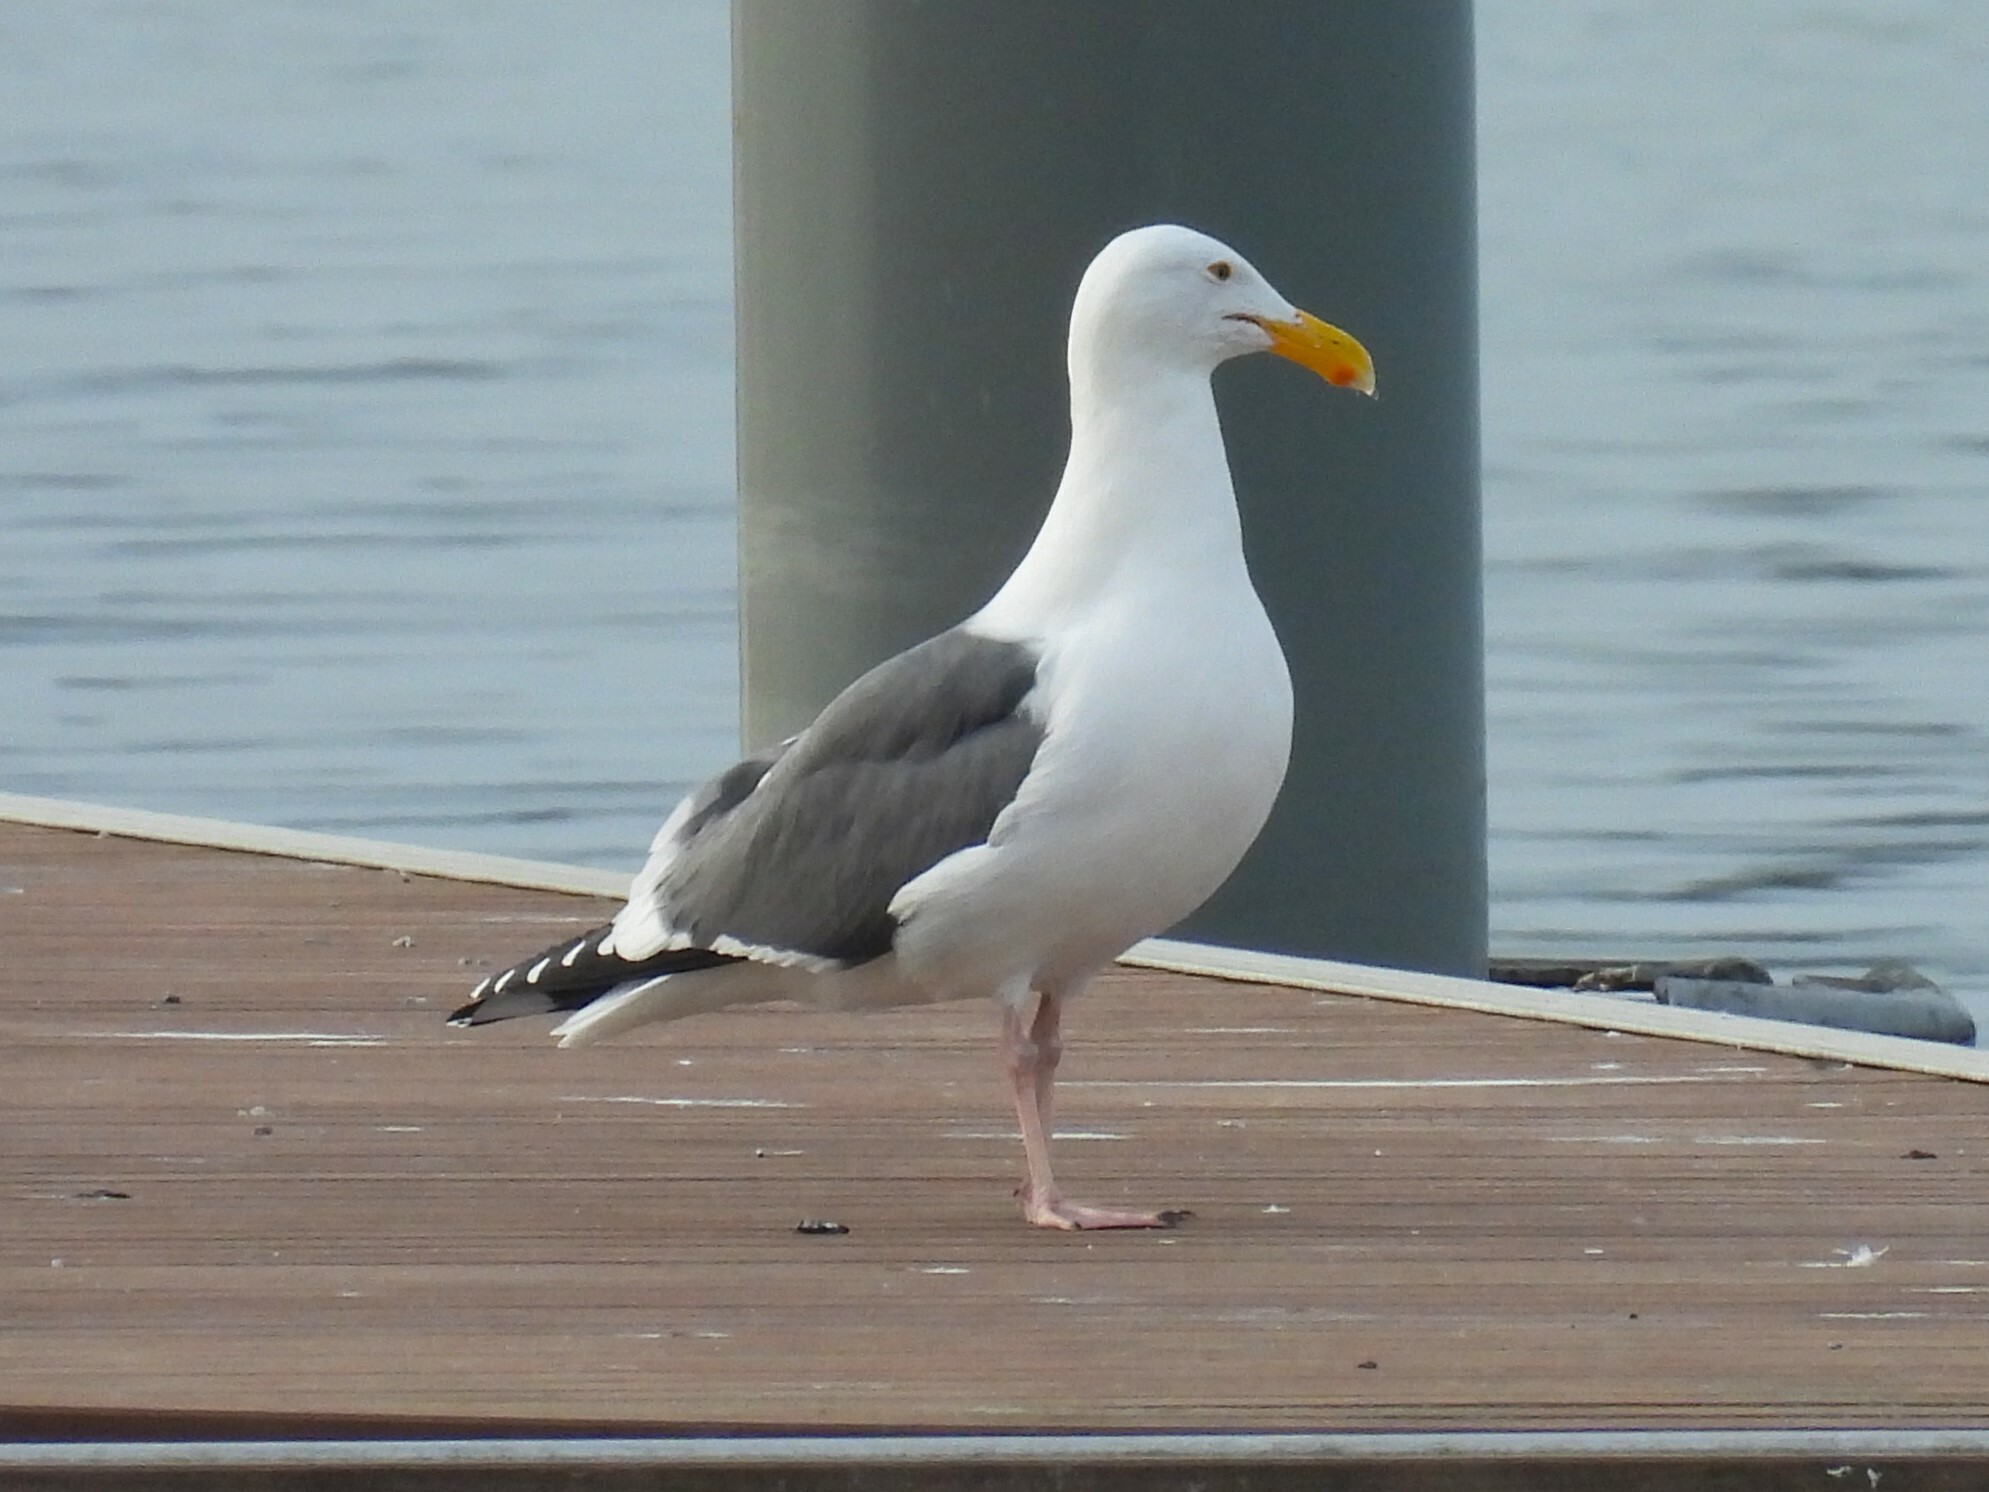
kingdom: Animalia
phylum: Chordata
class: Aves
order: Charadriiformes
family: Laridae
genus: Larus
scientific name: Larus occidentalis
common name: Western gull
